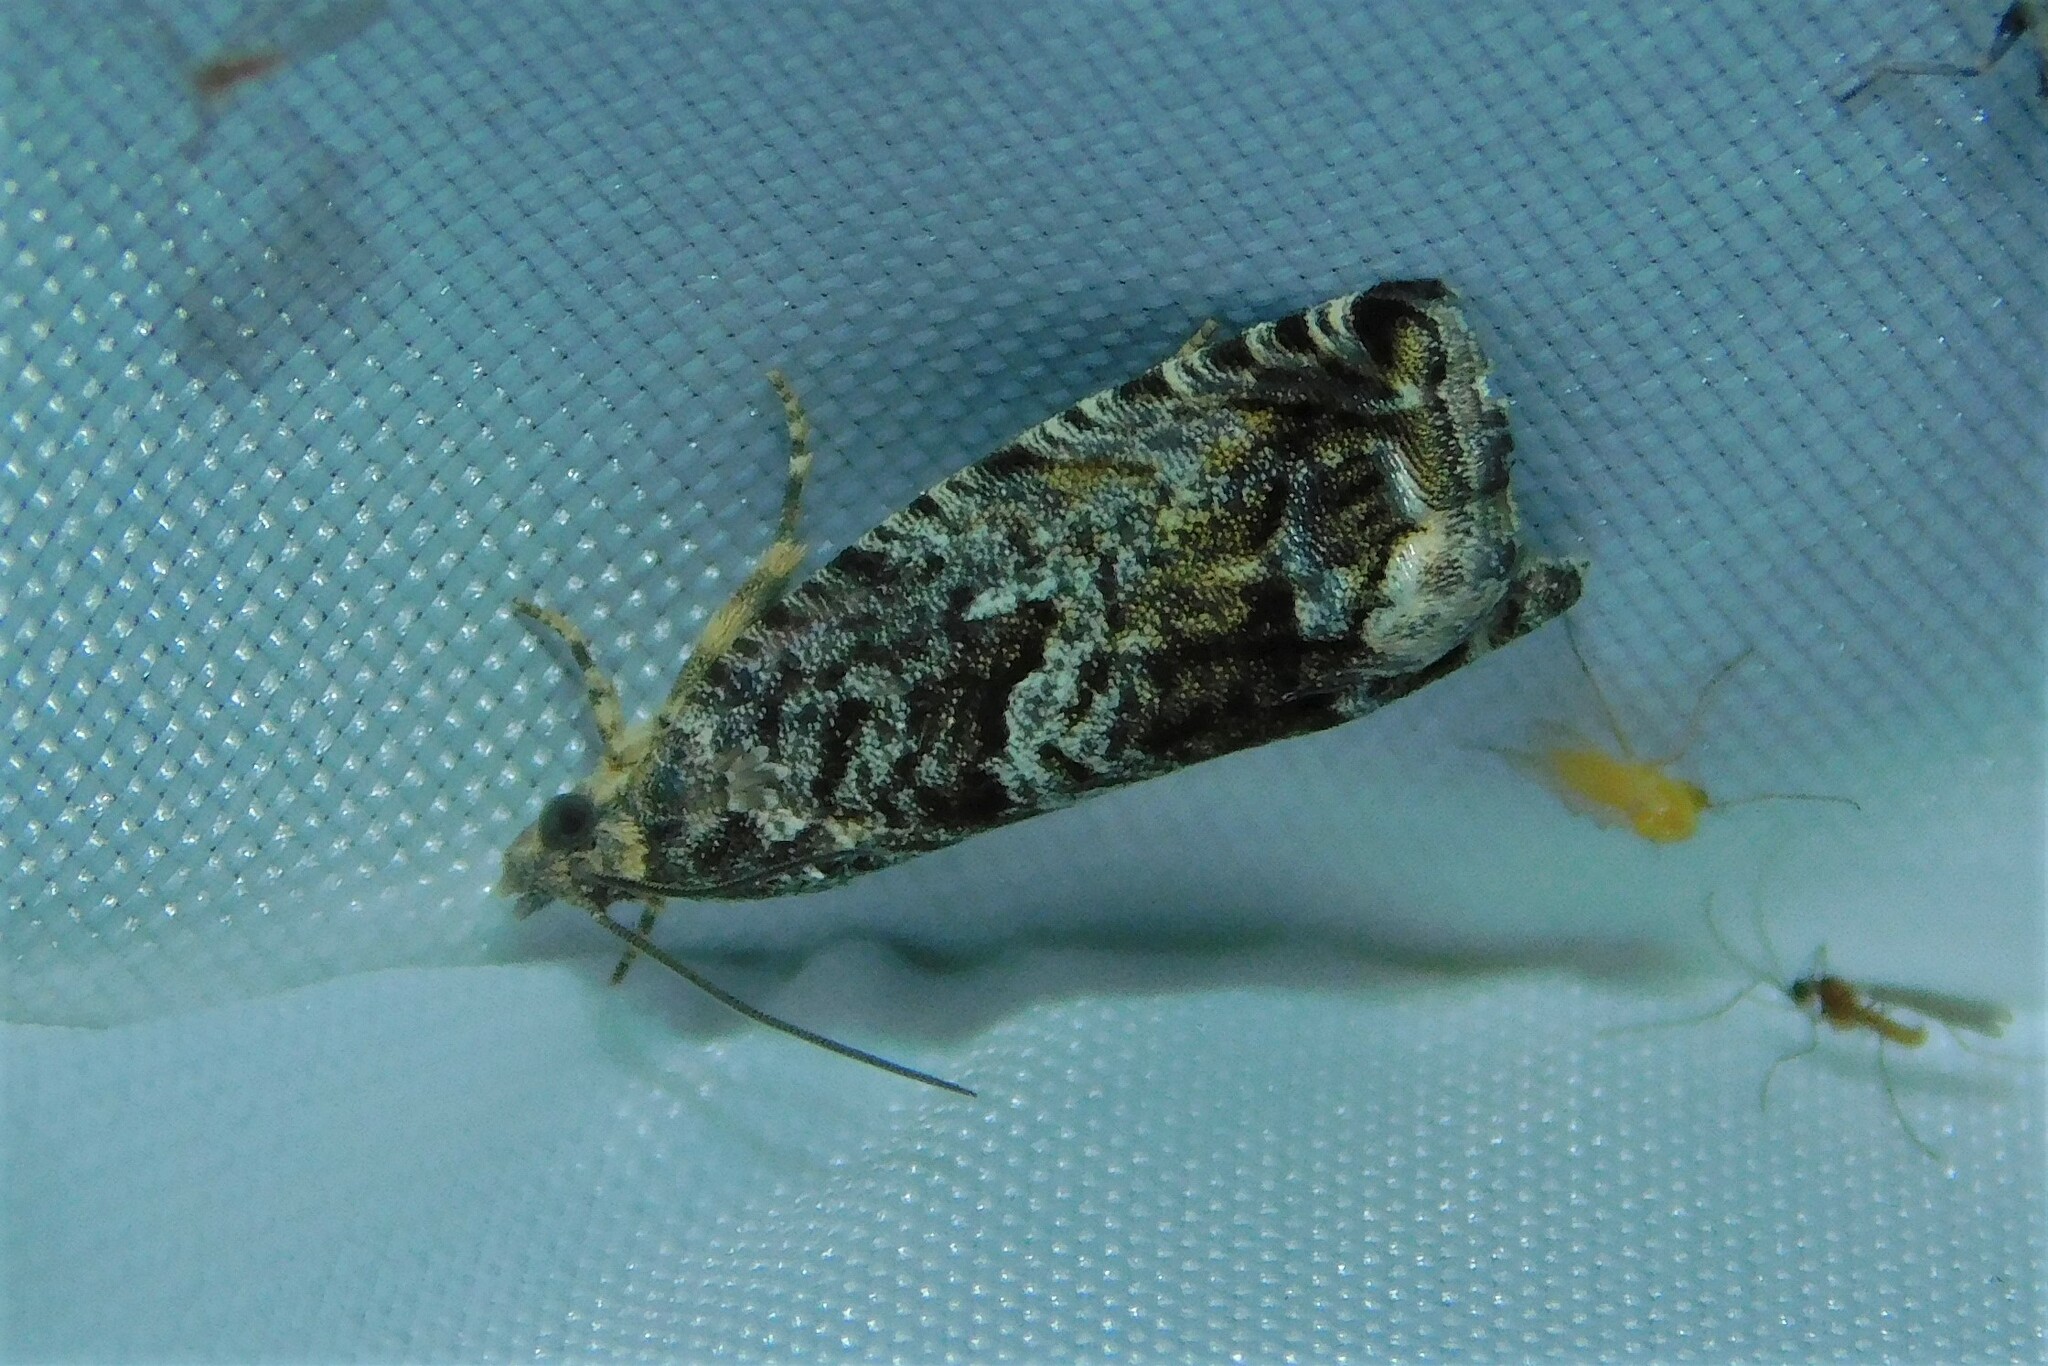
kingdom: Animalia
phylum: Arthropoda
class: Insecta
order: Lepidoptera
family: Tortricidae
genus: Cydia
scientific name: Cydia fagiglandana
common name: Large beech piercer
